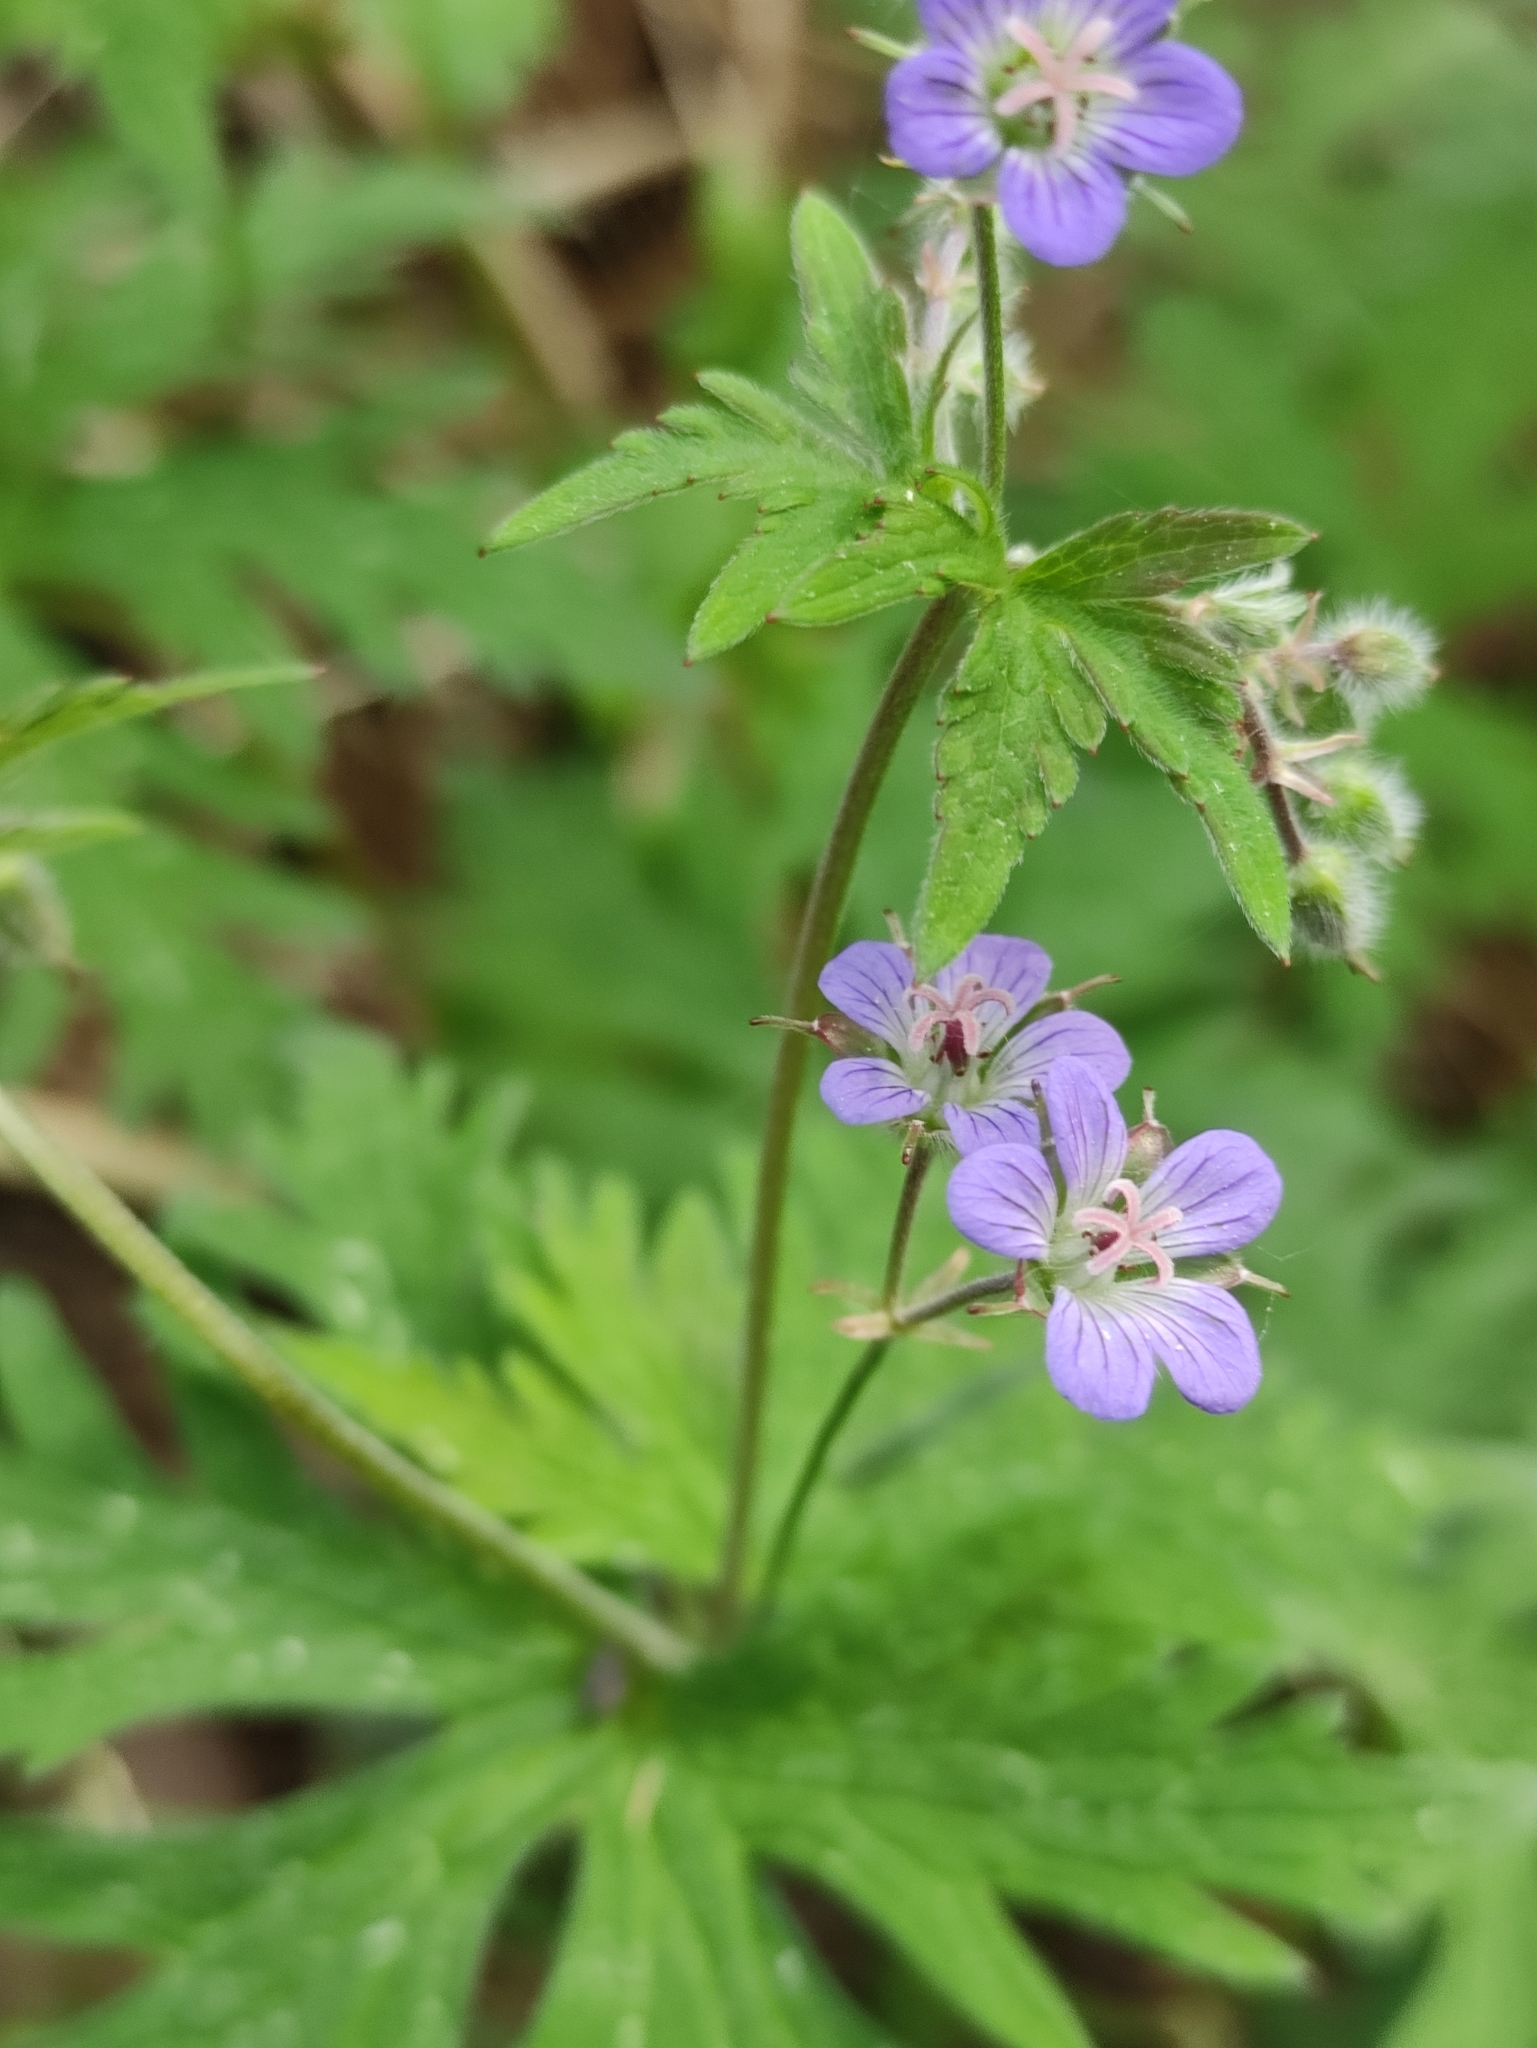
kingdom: Plantae
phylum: Tracheophyta
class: Magnoliopsida
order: Geraniales
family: Geraniaceae
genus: Geranium
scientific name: Geranium pseudosibiricum
